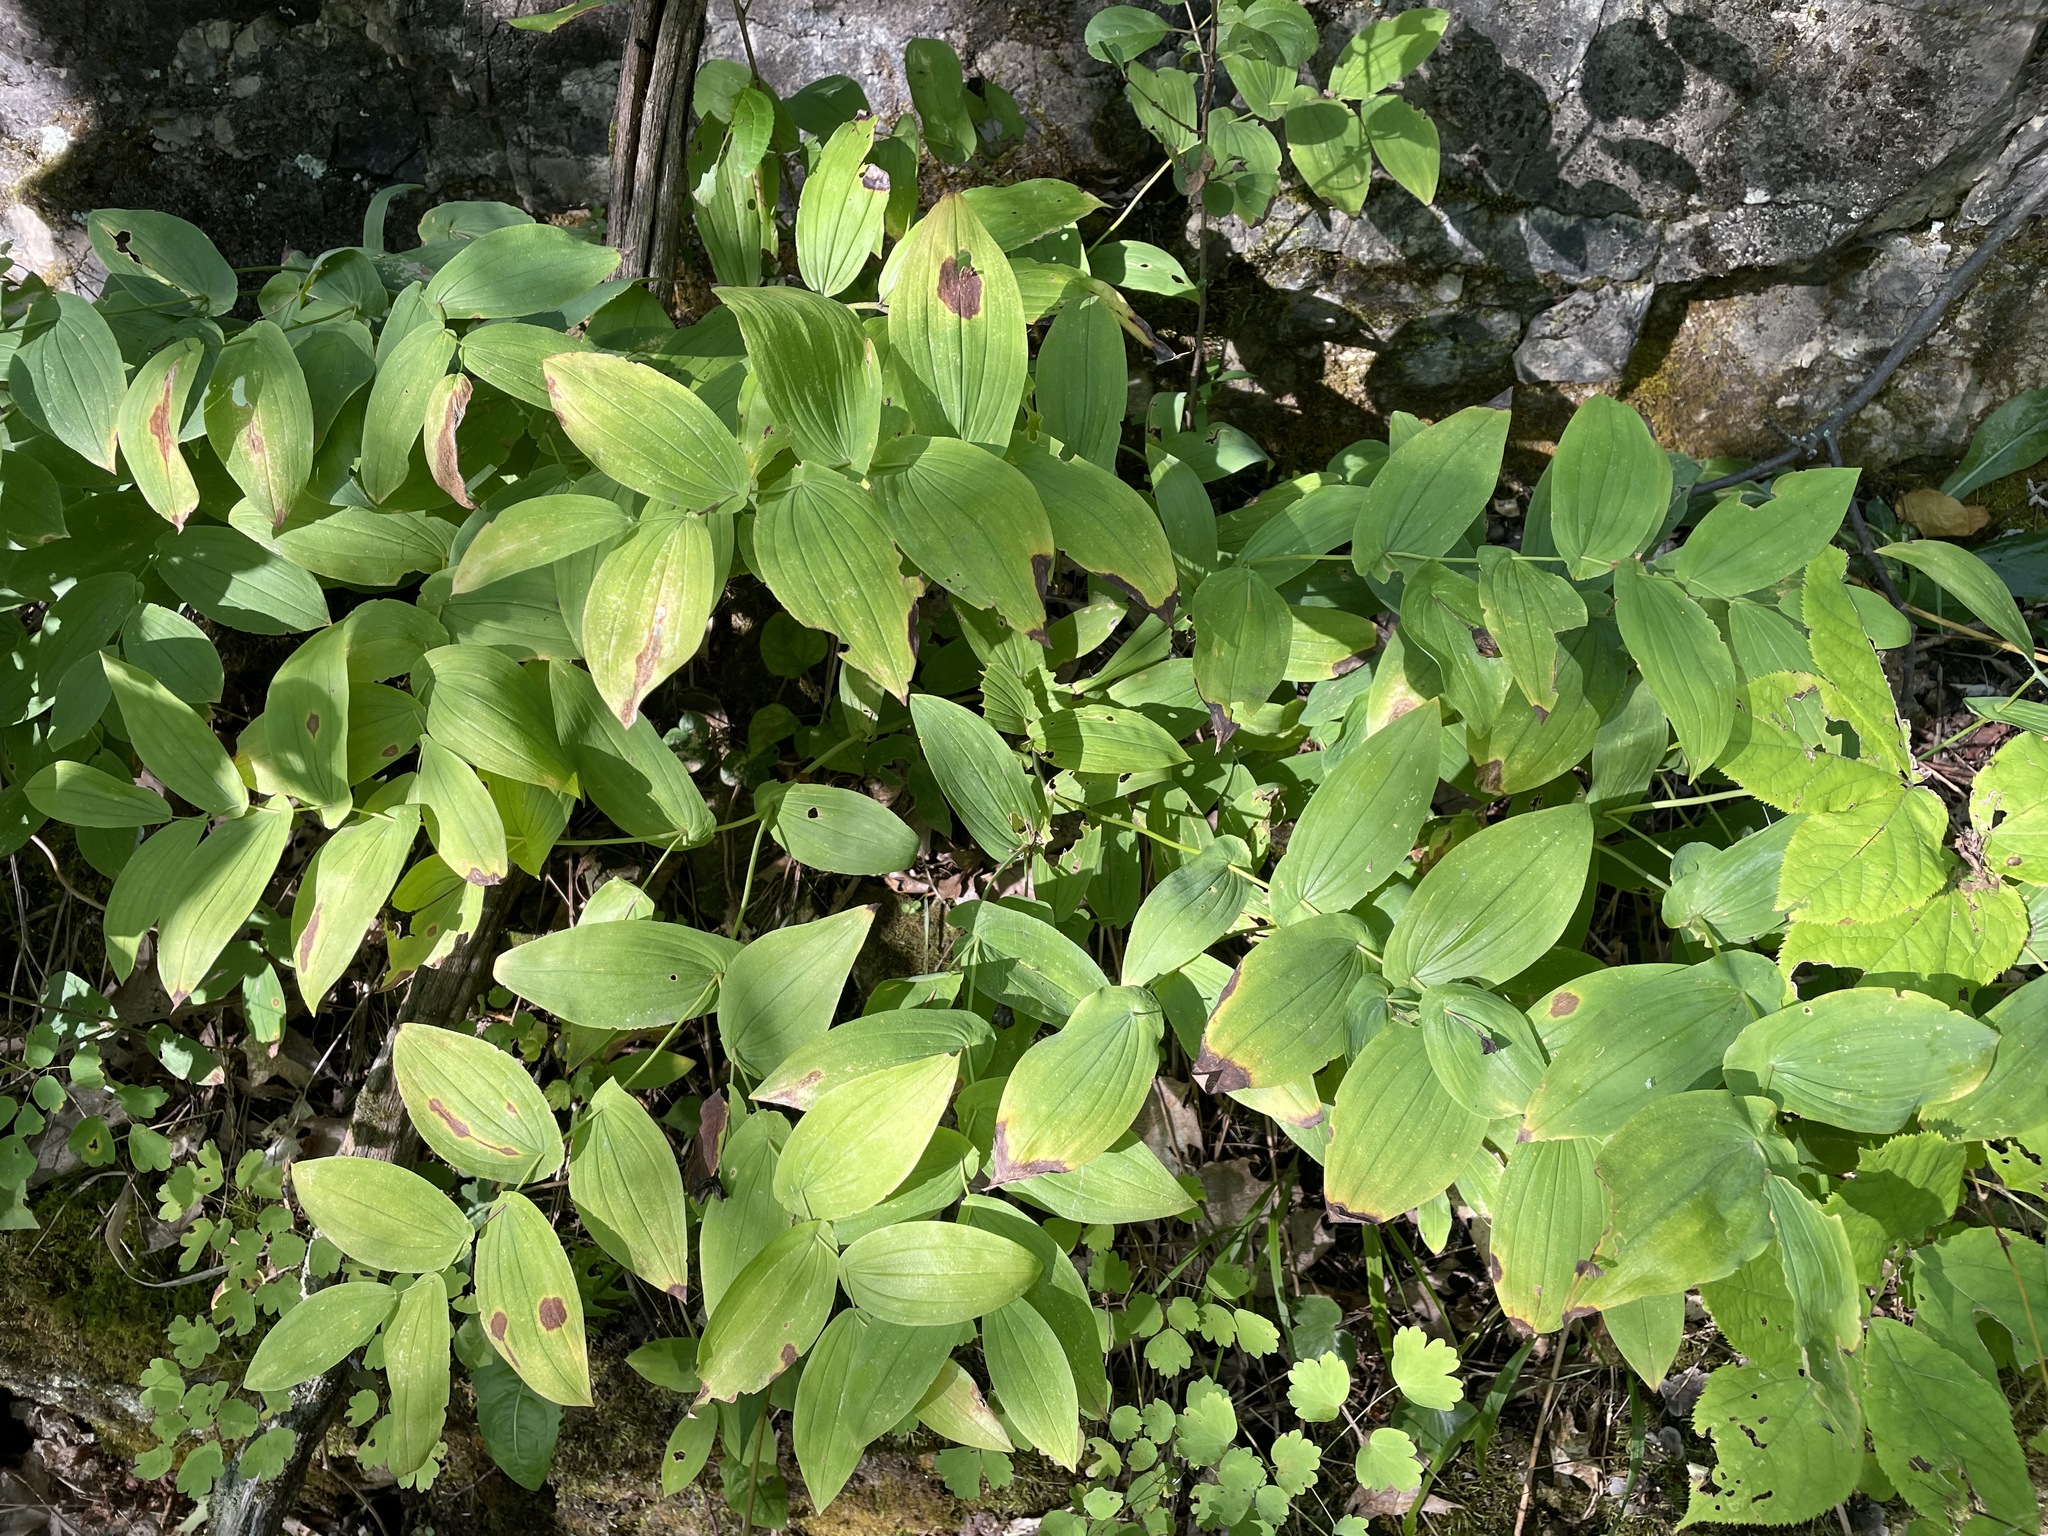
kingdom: Plantae
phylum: Tracheophyta
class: Liliopsida
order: Liliales
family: Colchicaceae
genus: Uvularia
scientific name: Uvularia grandiflora
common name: Bellwort
